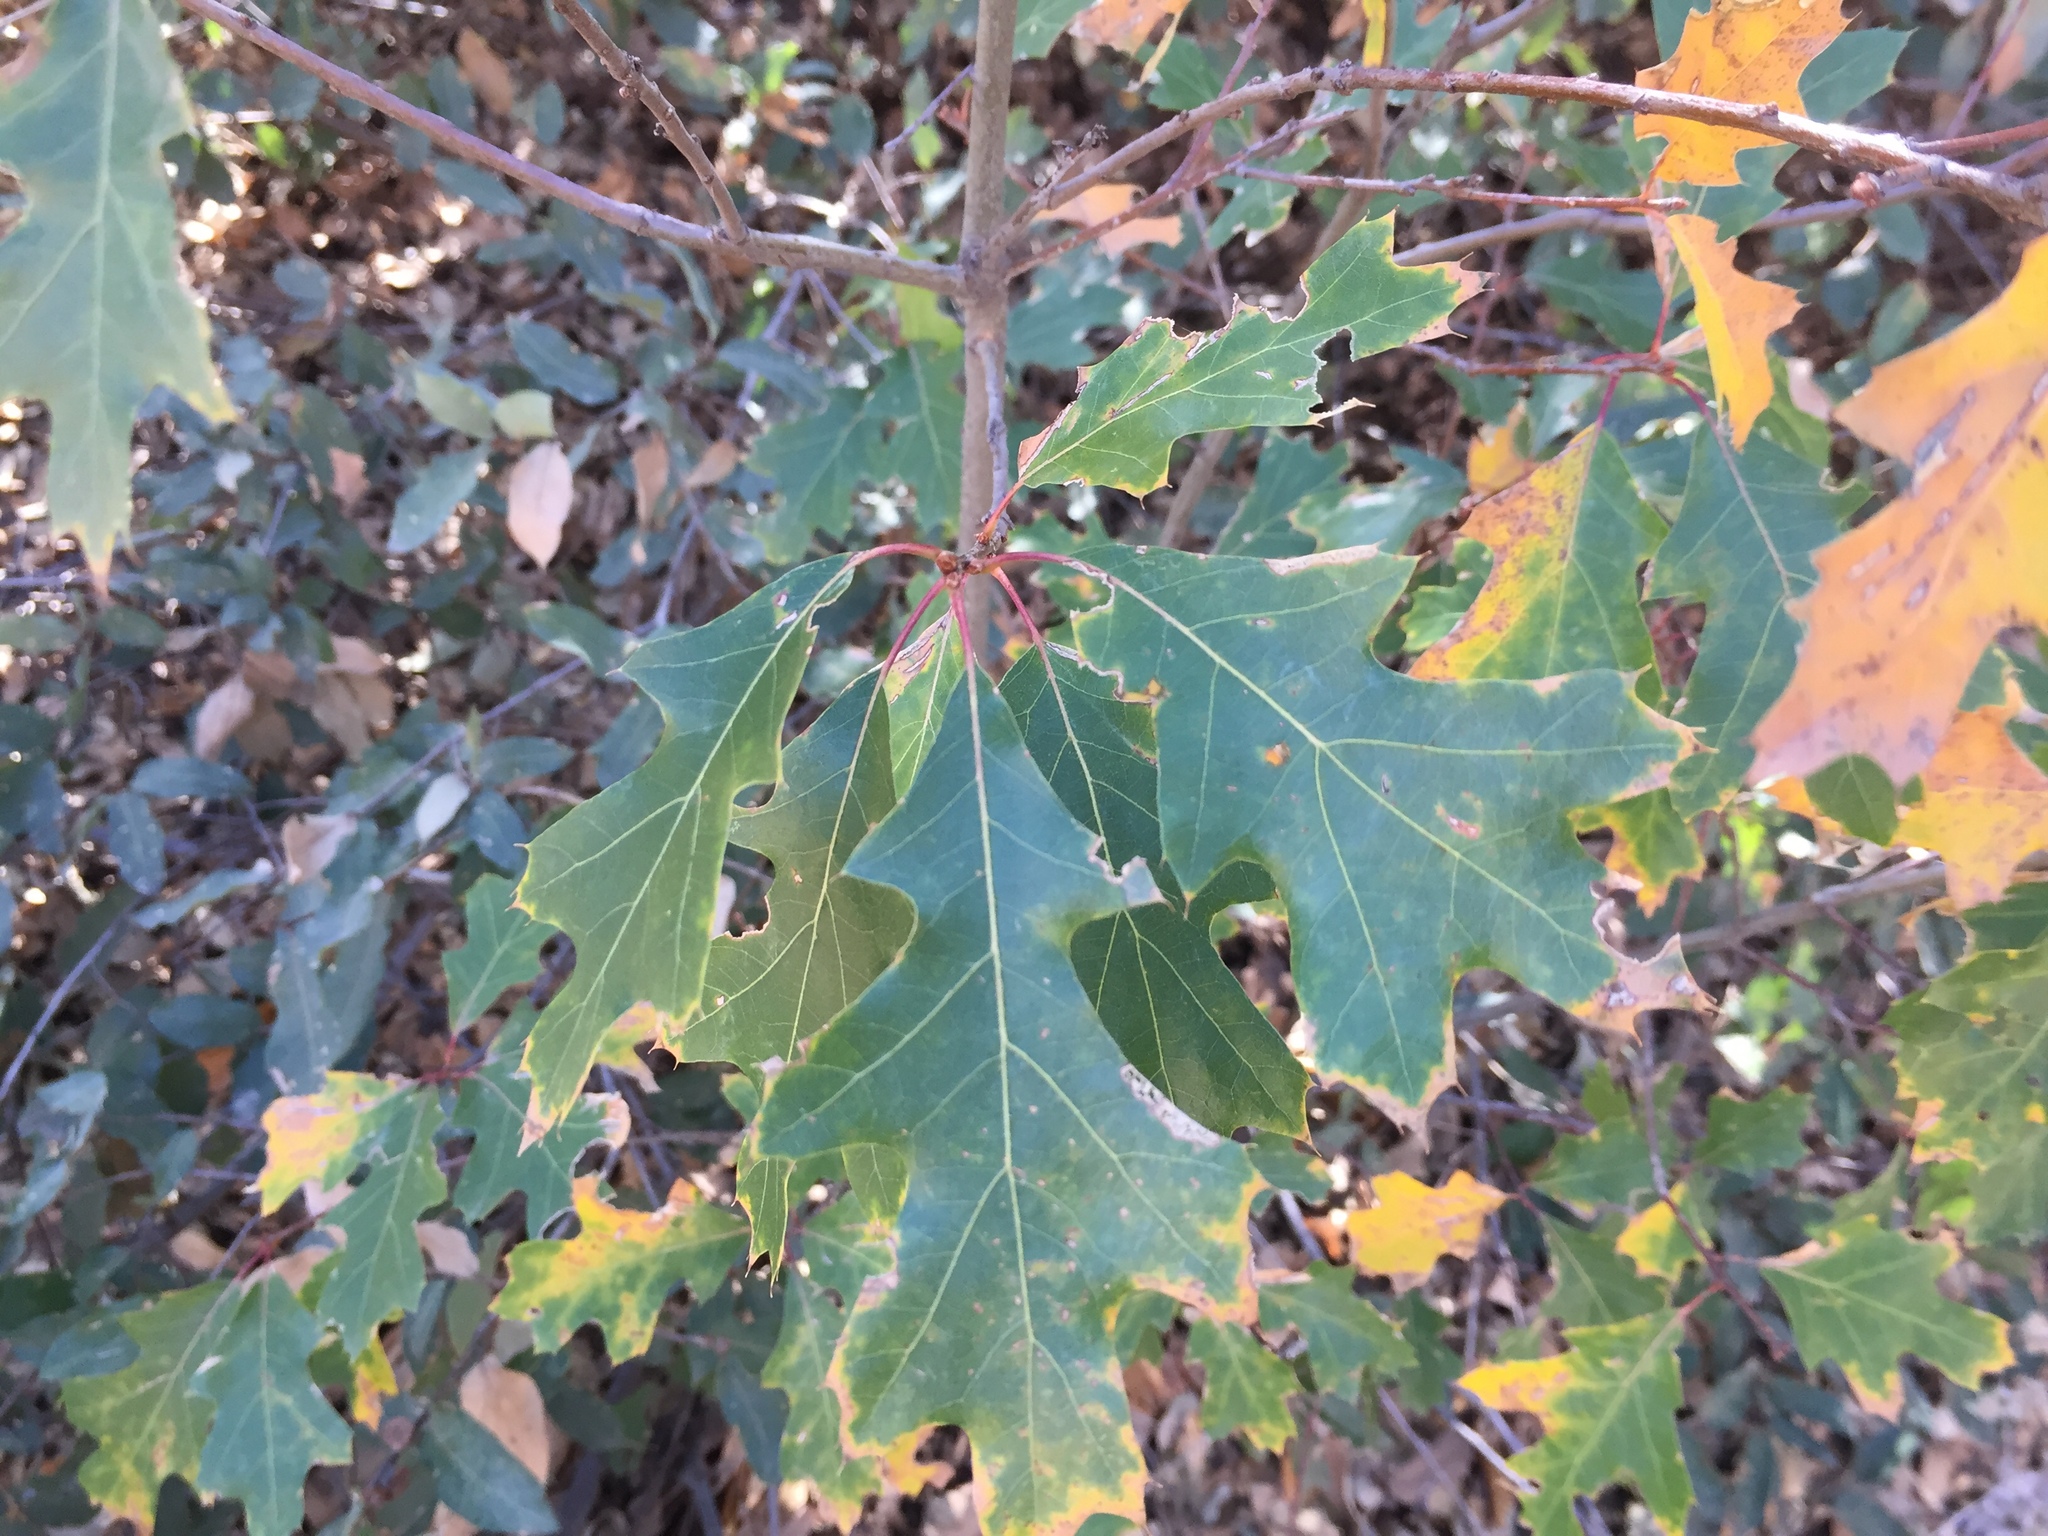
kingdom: Plantae
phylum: Tracheophyta
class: Magnoliopsida
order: Fagales
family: Fagaceae
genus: Quercus
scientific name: Quercus gravesii
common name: Chisos red oak
